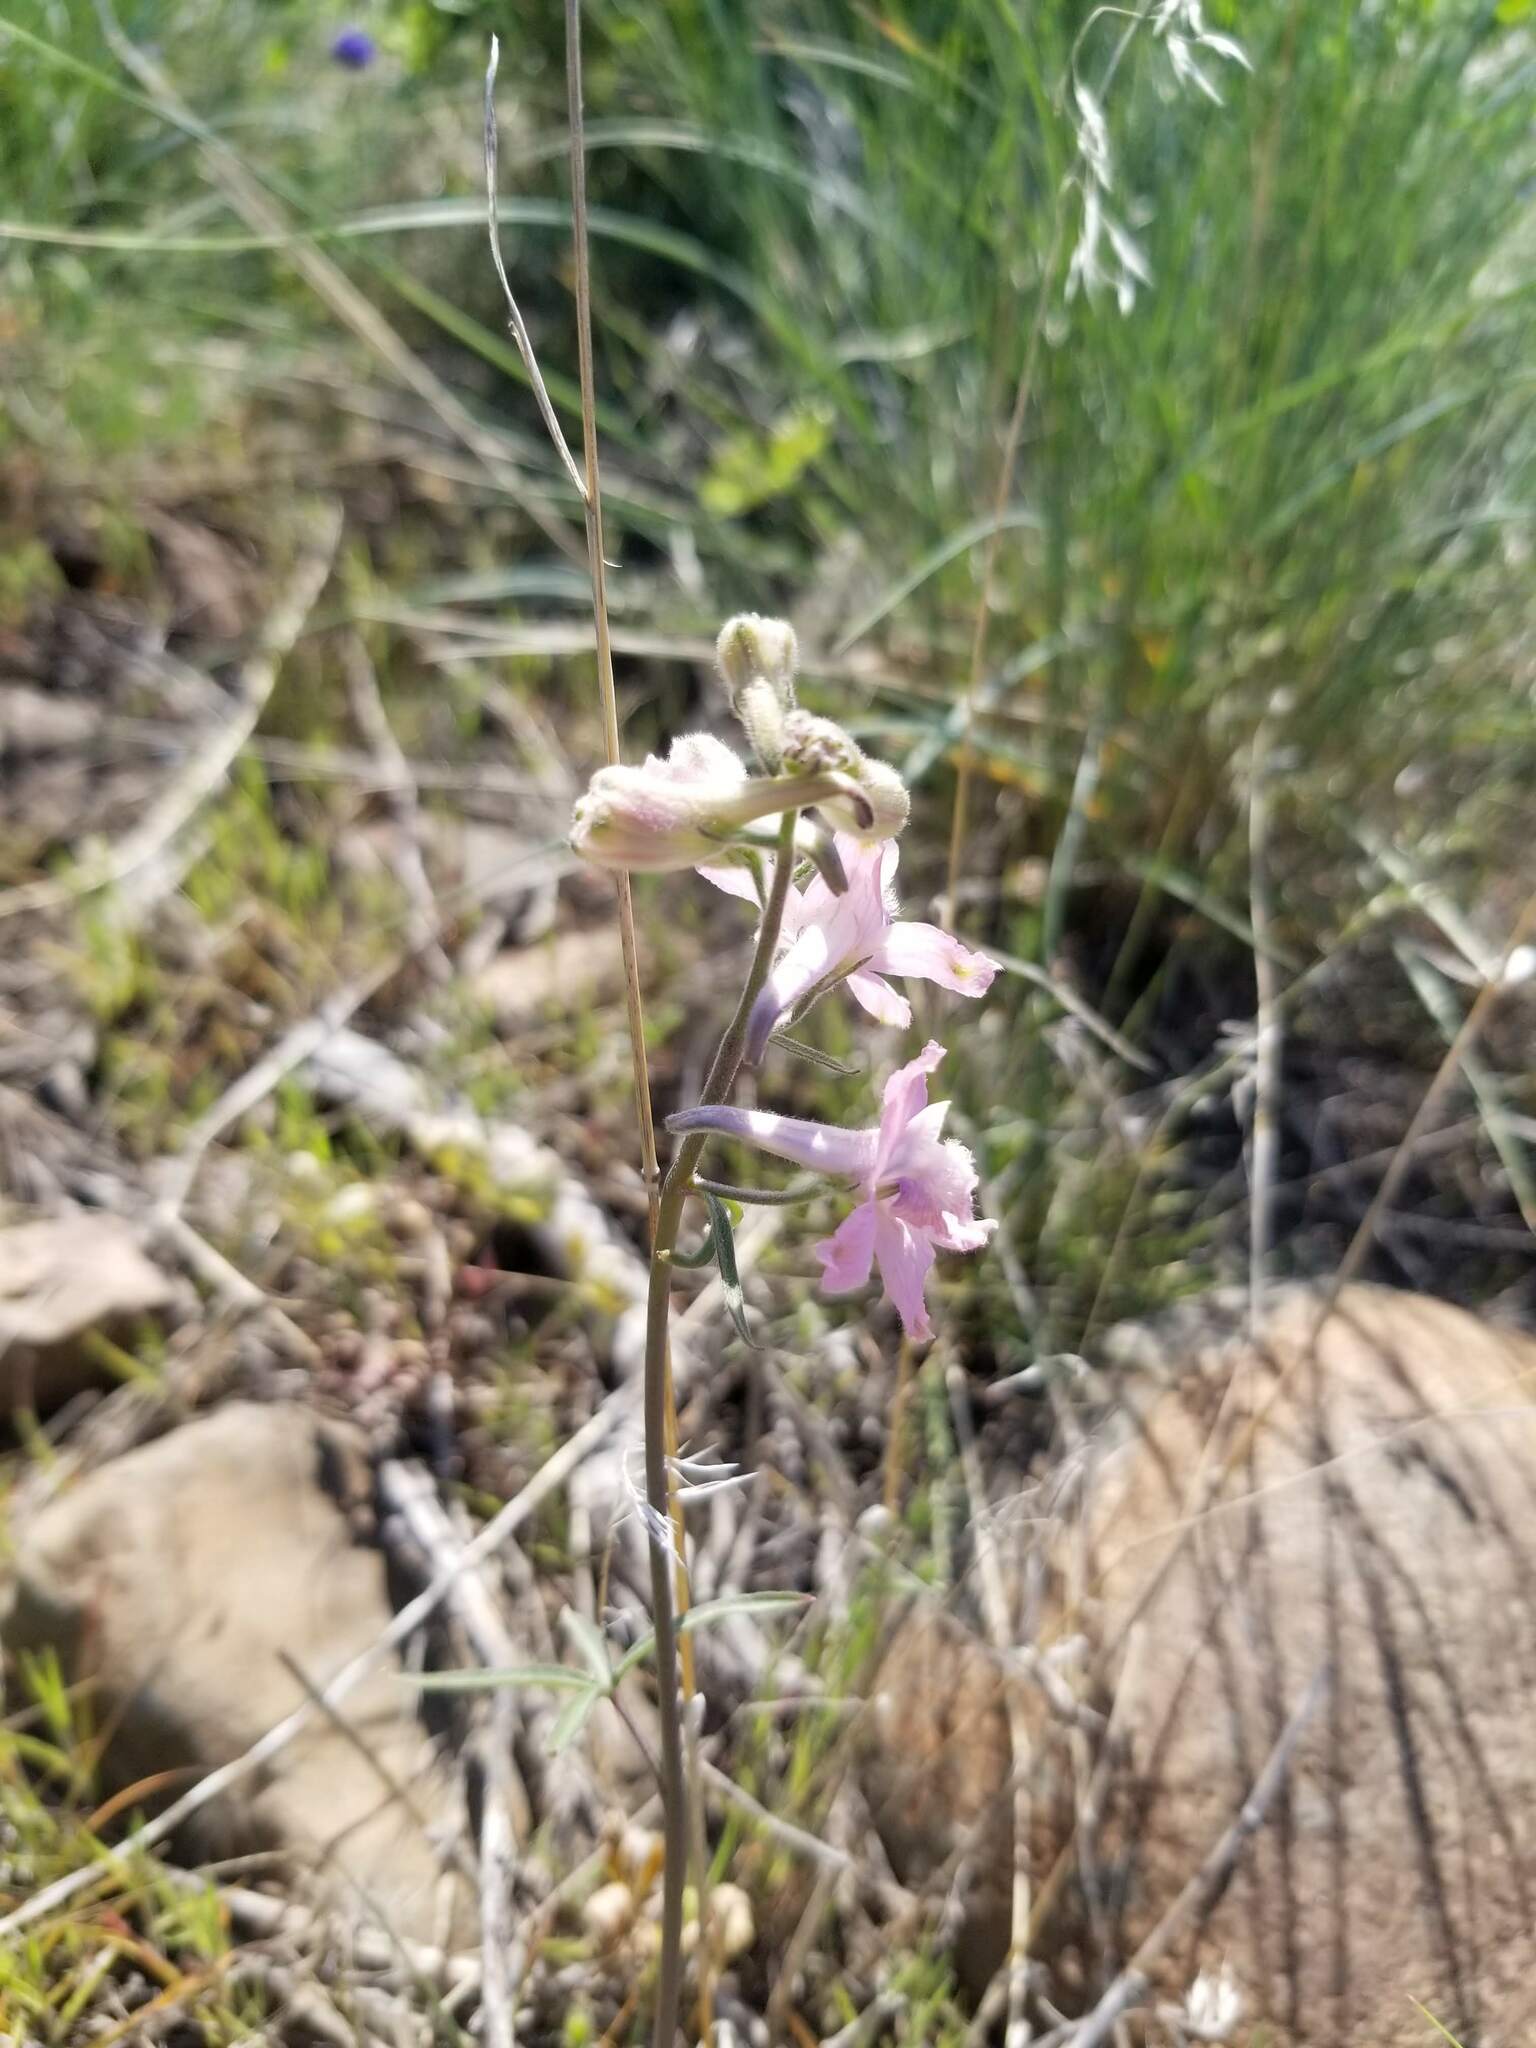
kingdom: Plantae
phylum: Tracheophyta
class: Magnoliopsida
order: Ranunculales
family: Ranunculaceae
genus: Delphinium
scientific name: Delphinium nuttallianum
